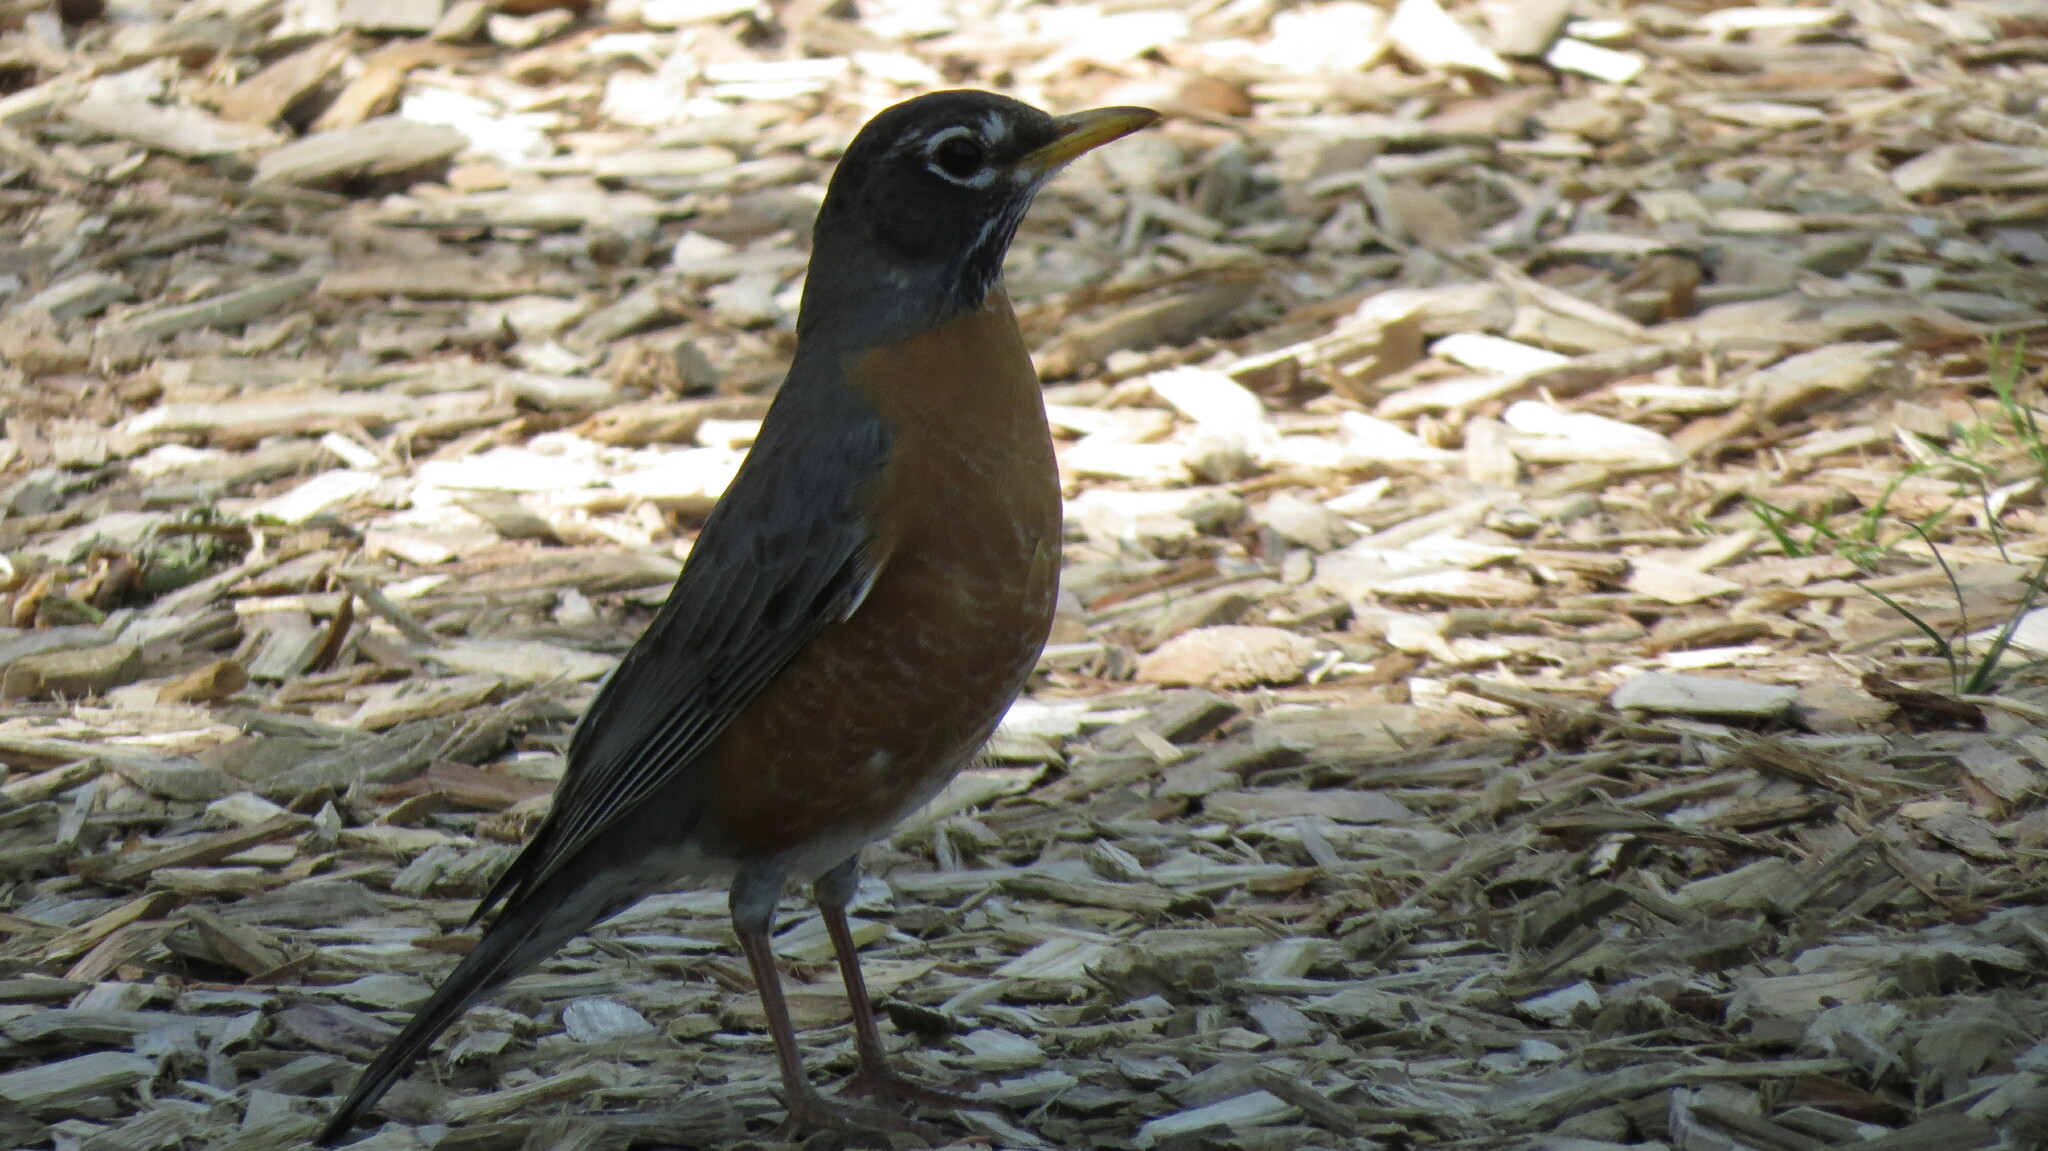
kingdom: Animalia
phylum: Chordata
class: Aves
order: Passeriformes
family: Turdidae
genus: Turdus
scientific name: Turdus migratorius
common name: American robin
